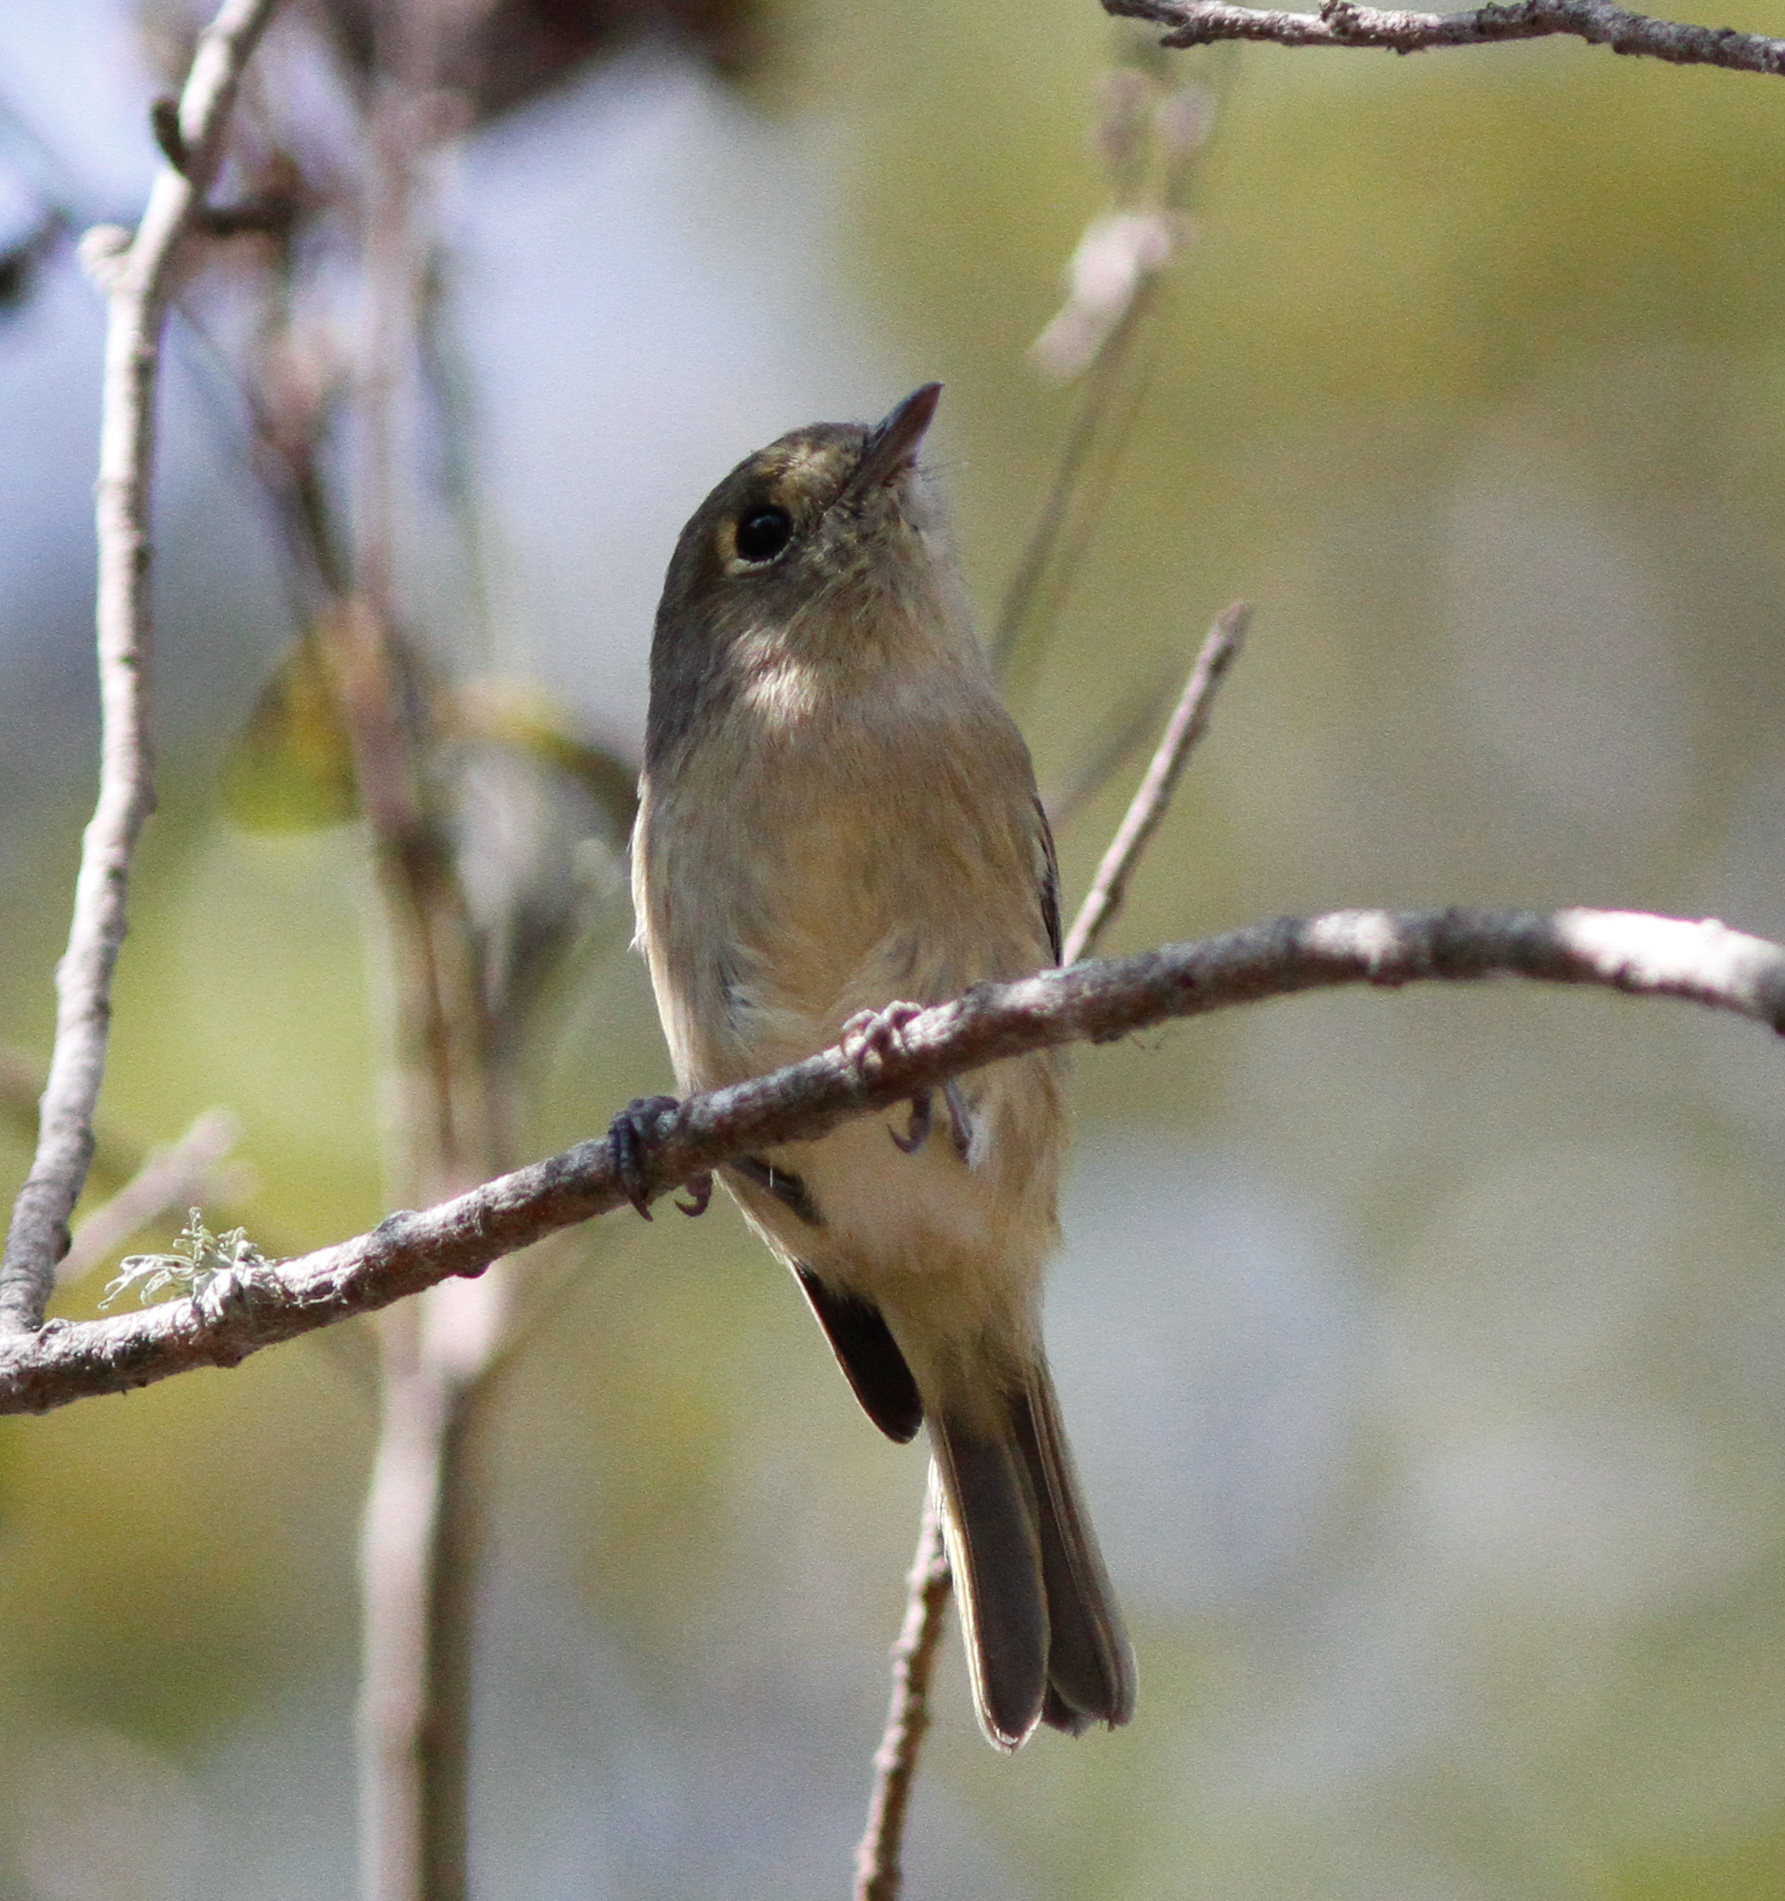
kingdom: Animalia
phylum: Chordata
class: Aves
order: Passeriformes
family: Vireonidae
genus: Vireo
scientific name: Vireo huttoni
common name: Hutton's vireo
